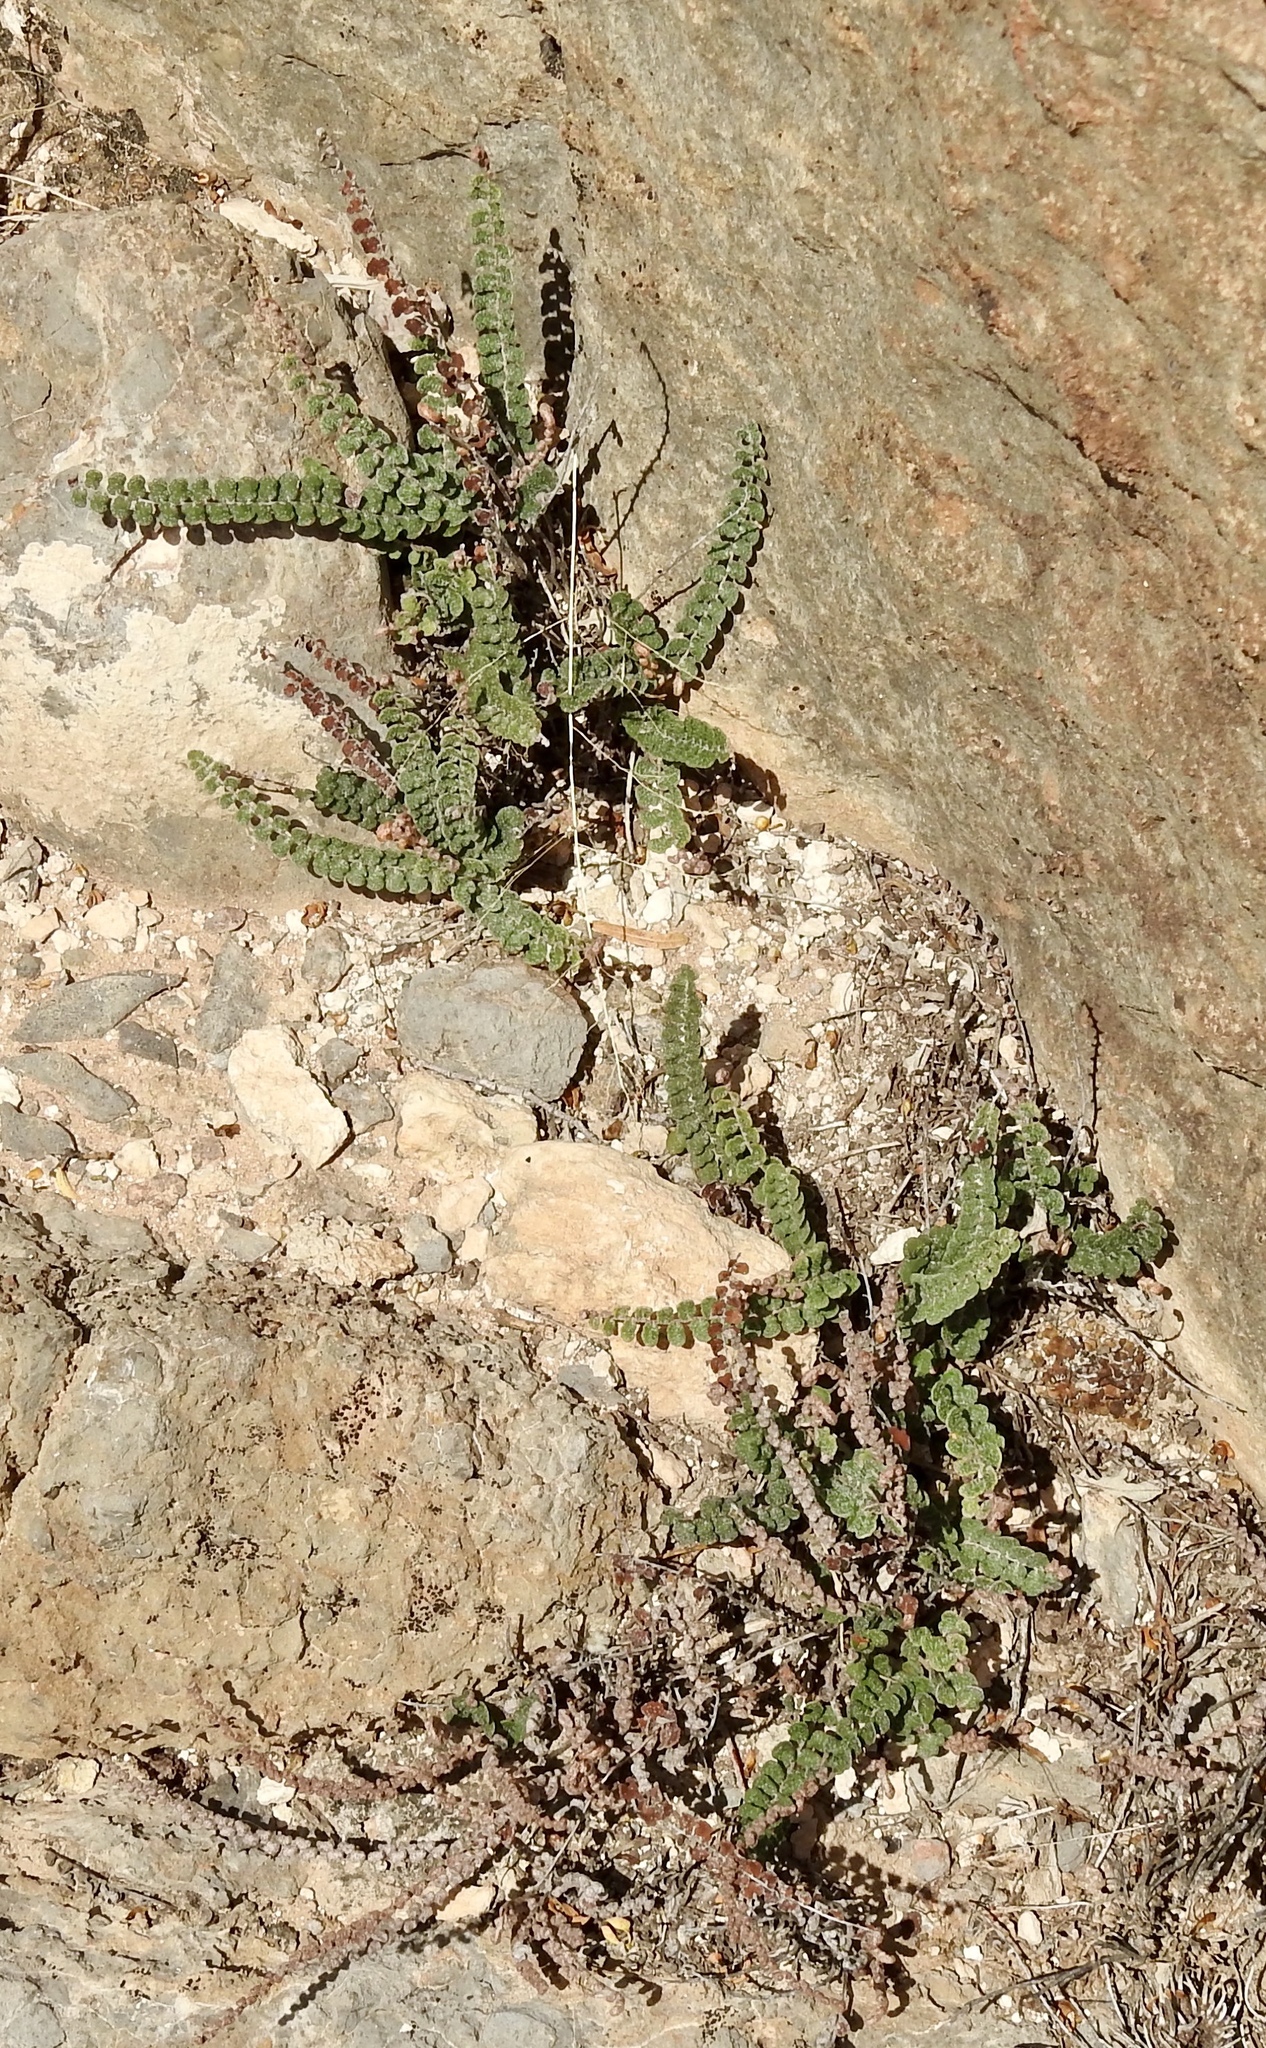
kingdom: Plantae
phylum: Tracheophyta
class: Polypodiopsida
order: Polypodiales
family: Pteridaceae
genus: Astrolepis
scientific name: Astrolepis cochisensis
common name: Scaly cloak fern
